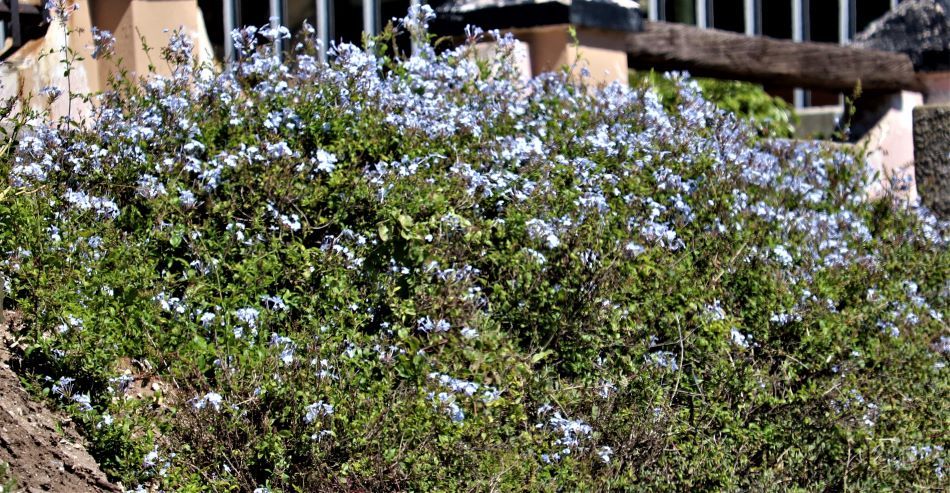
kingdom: Plantae
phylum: Tracheophyta
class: Magnoliopsida
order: Caryophyllales
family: Plumbaginaceae
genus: Plumbago
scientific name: Plumbago auriculata
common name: Cape leadwort
